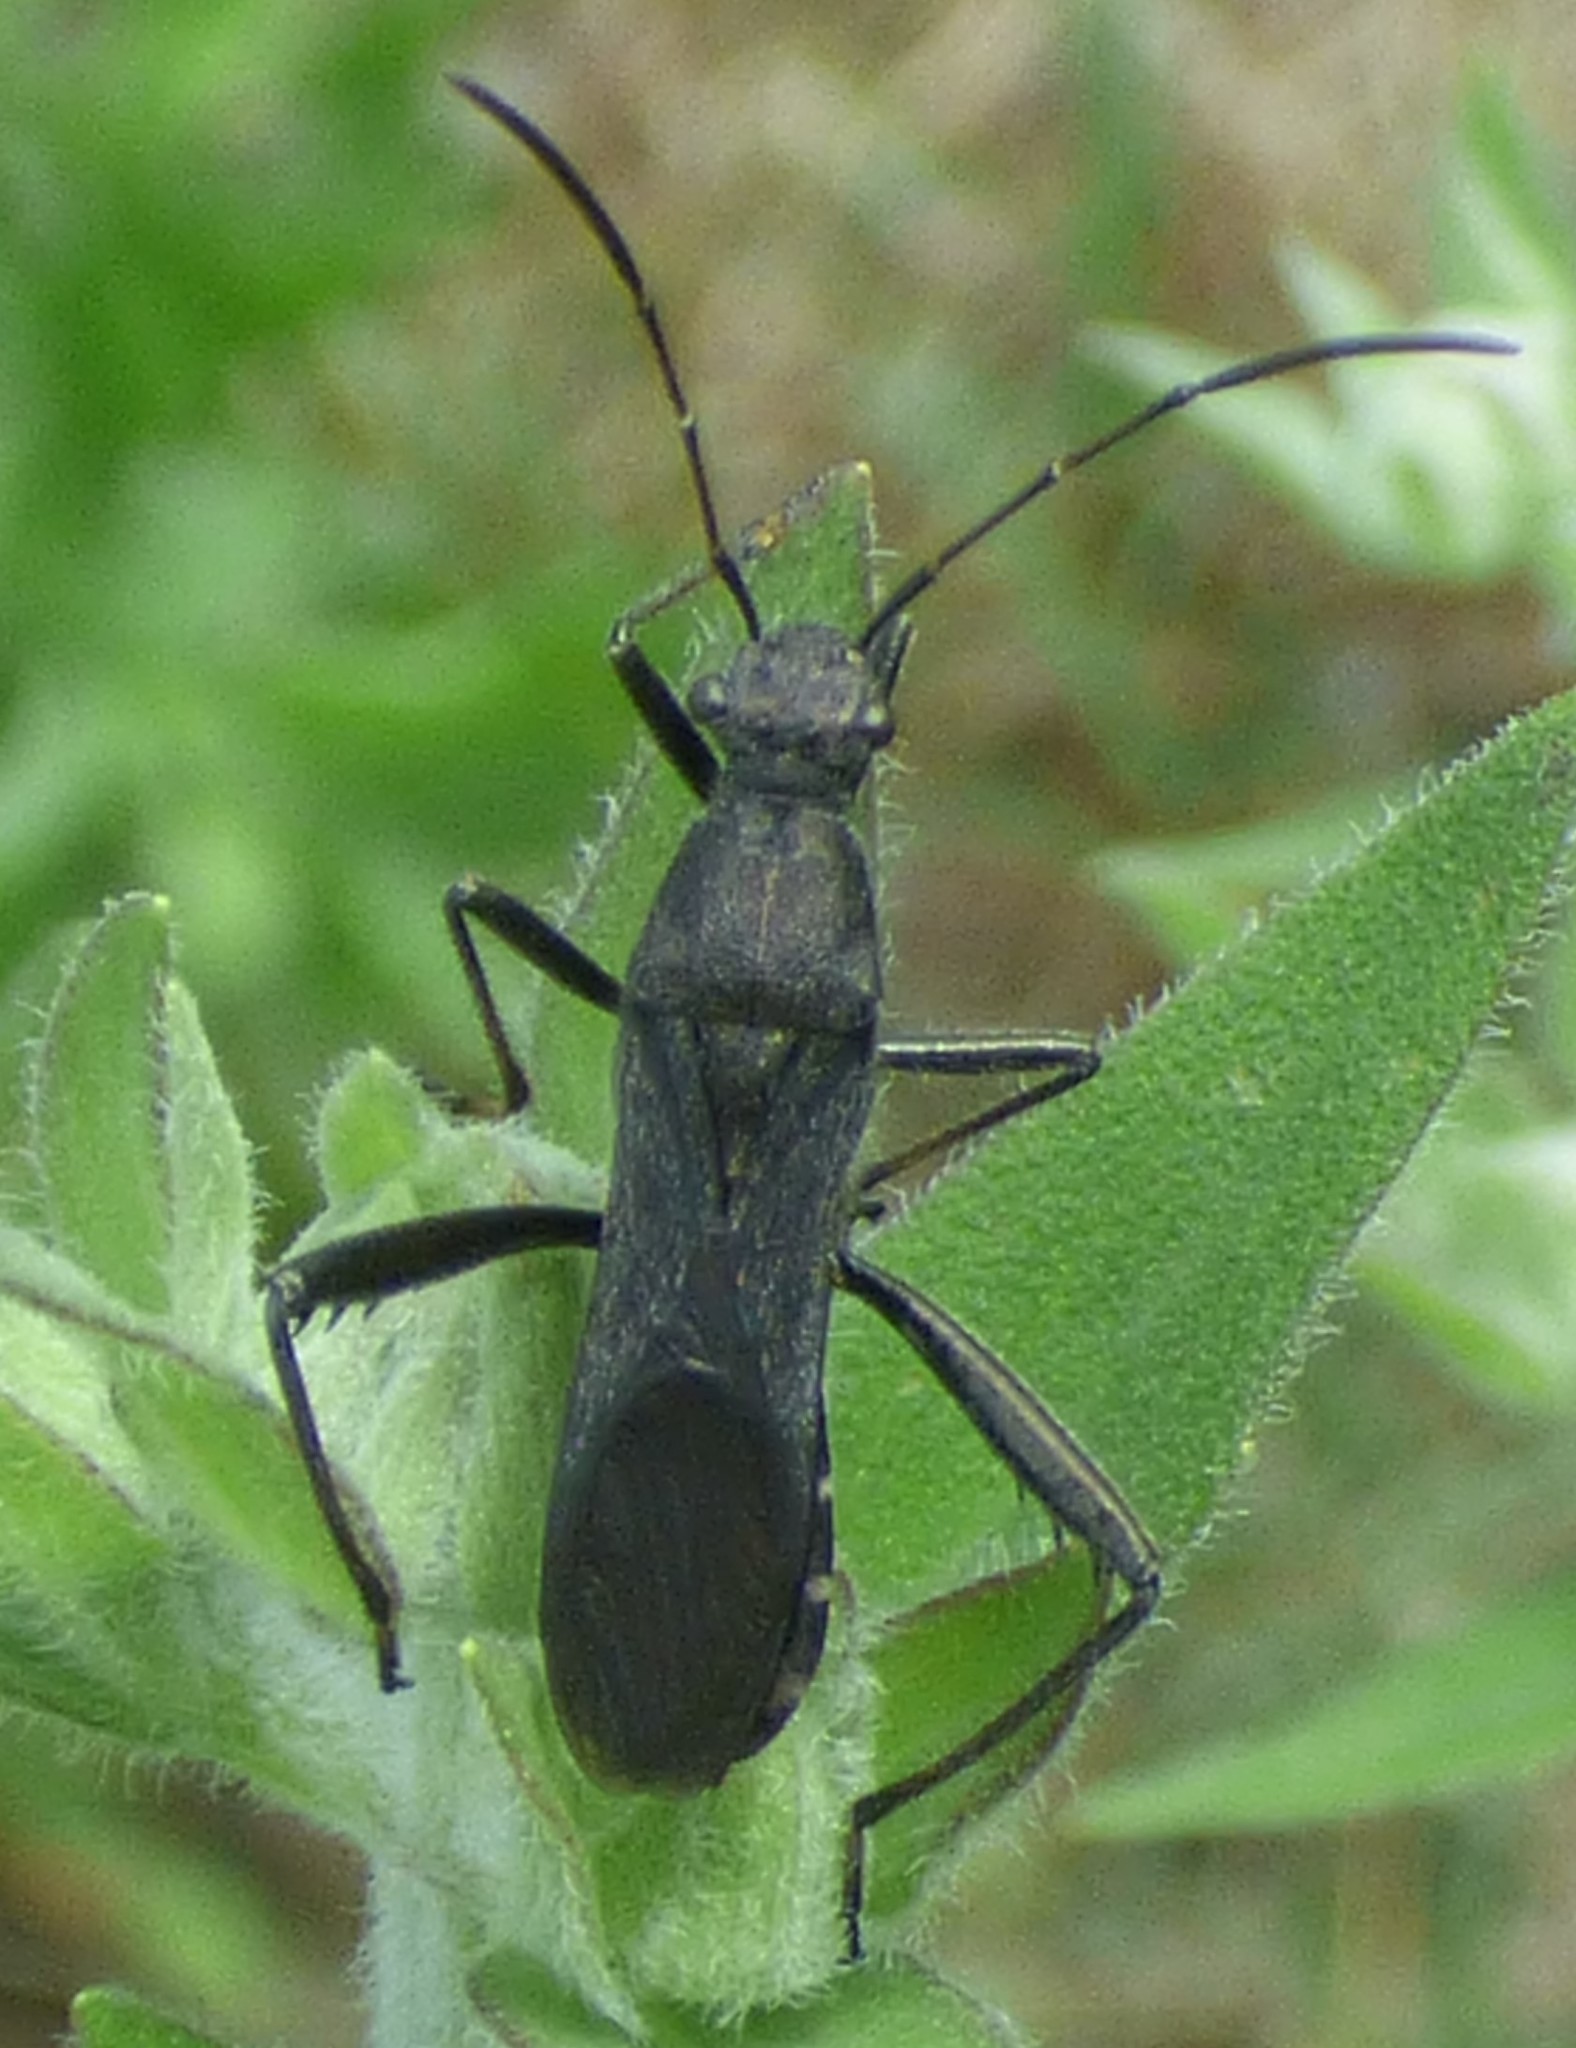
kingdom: Animalia
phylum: Arthropoda
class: Insecta
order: Hemiptera
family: Alydidae
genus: Alydus
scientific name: Alydus eurinus
